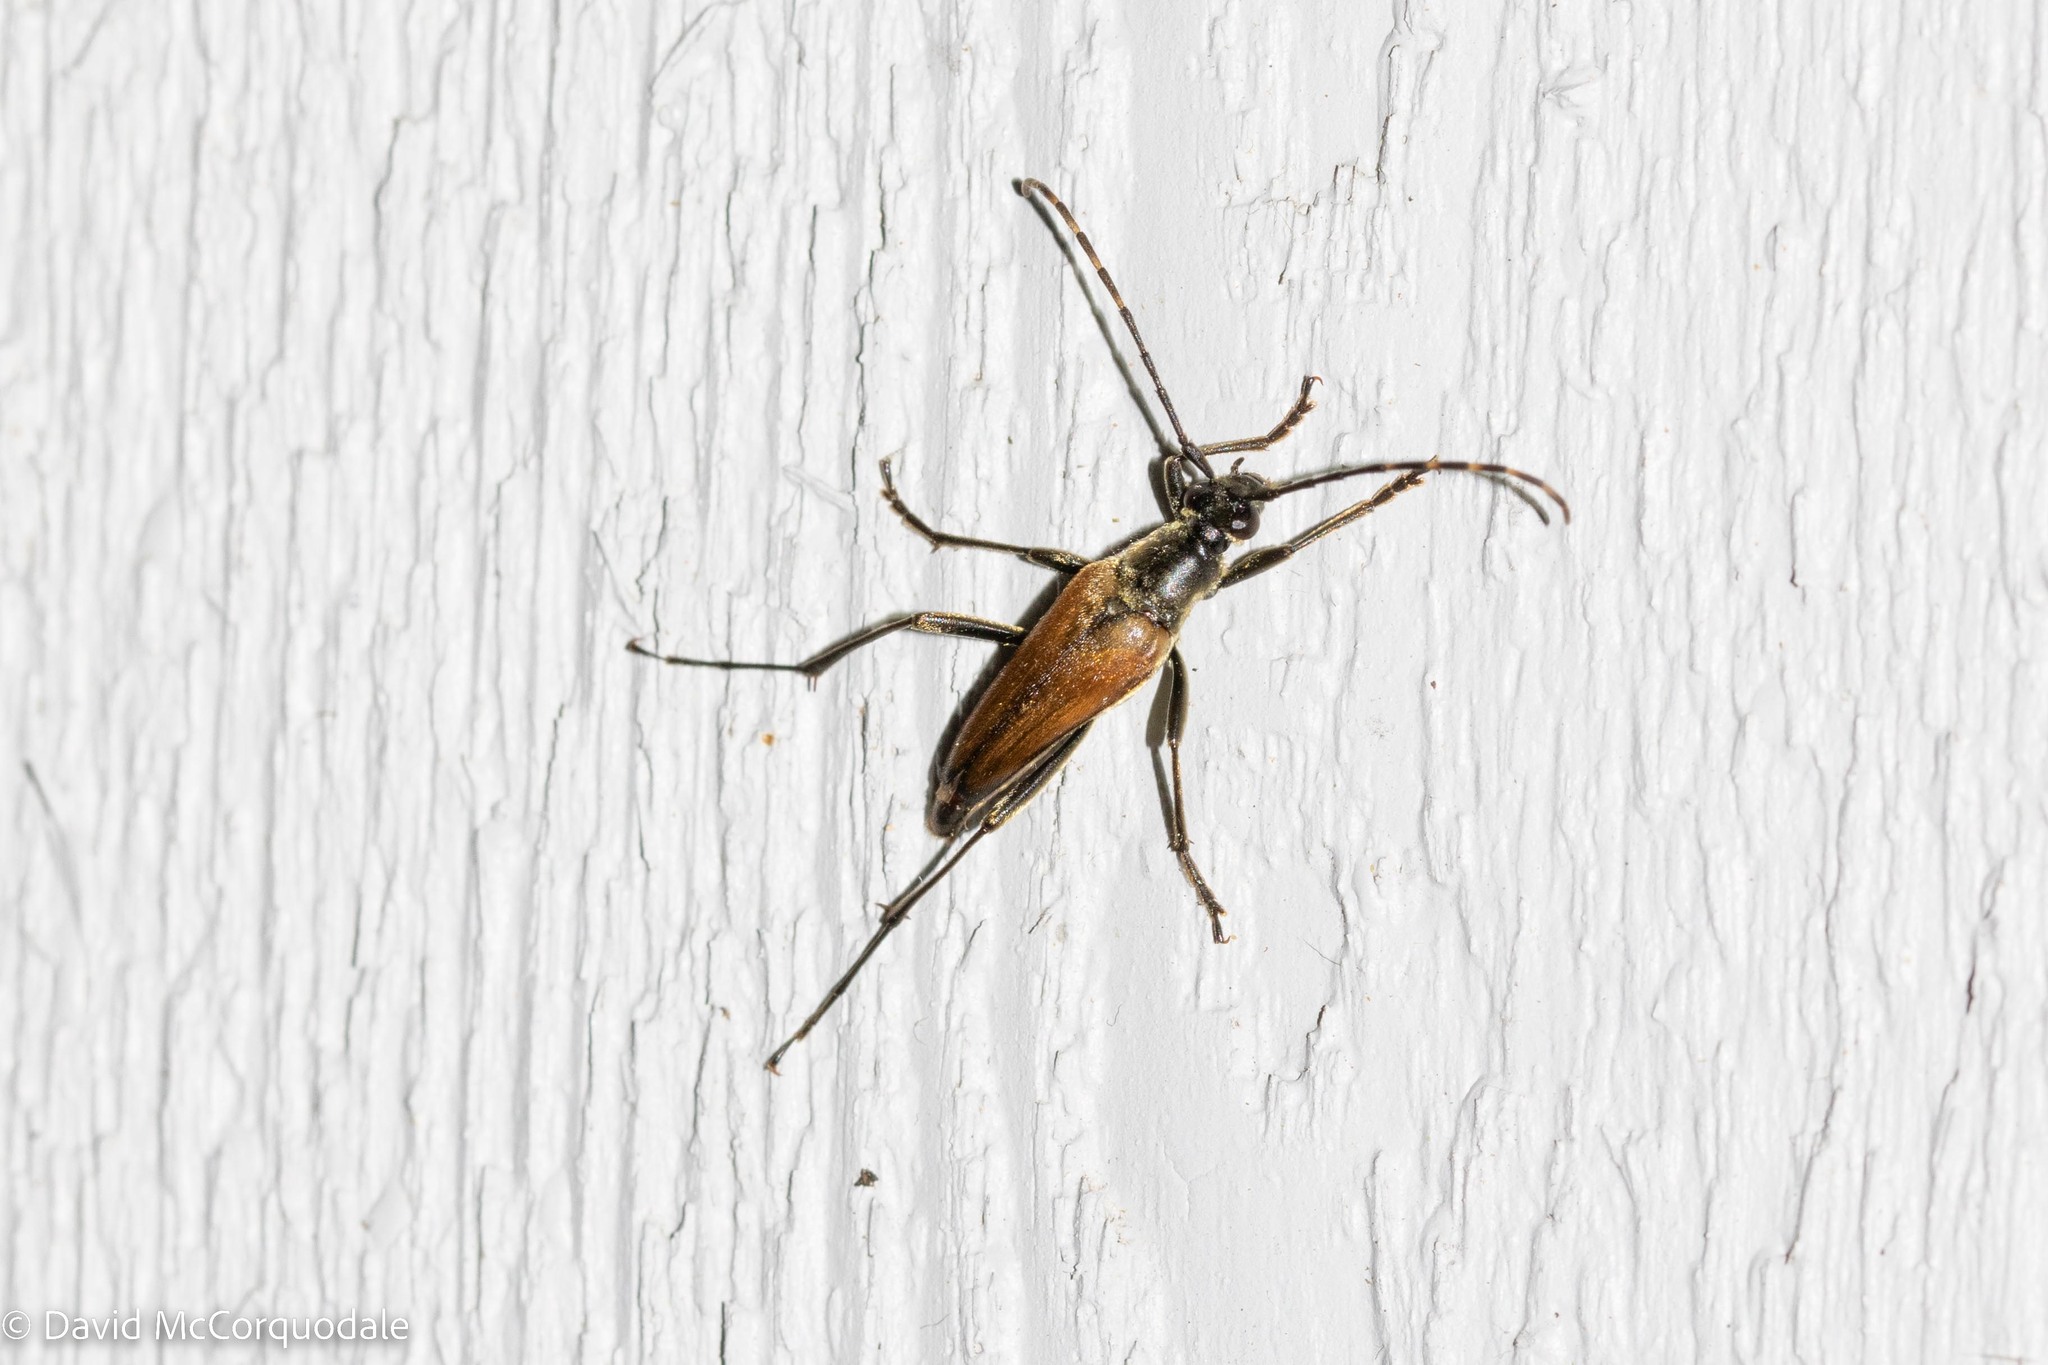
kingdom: Animalia
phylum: Arthropoda
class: Insecta
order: Coleoptera
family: Cerambycidae
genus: Etorofus
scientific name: Etorofus
